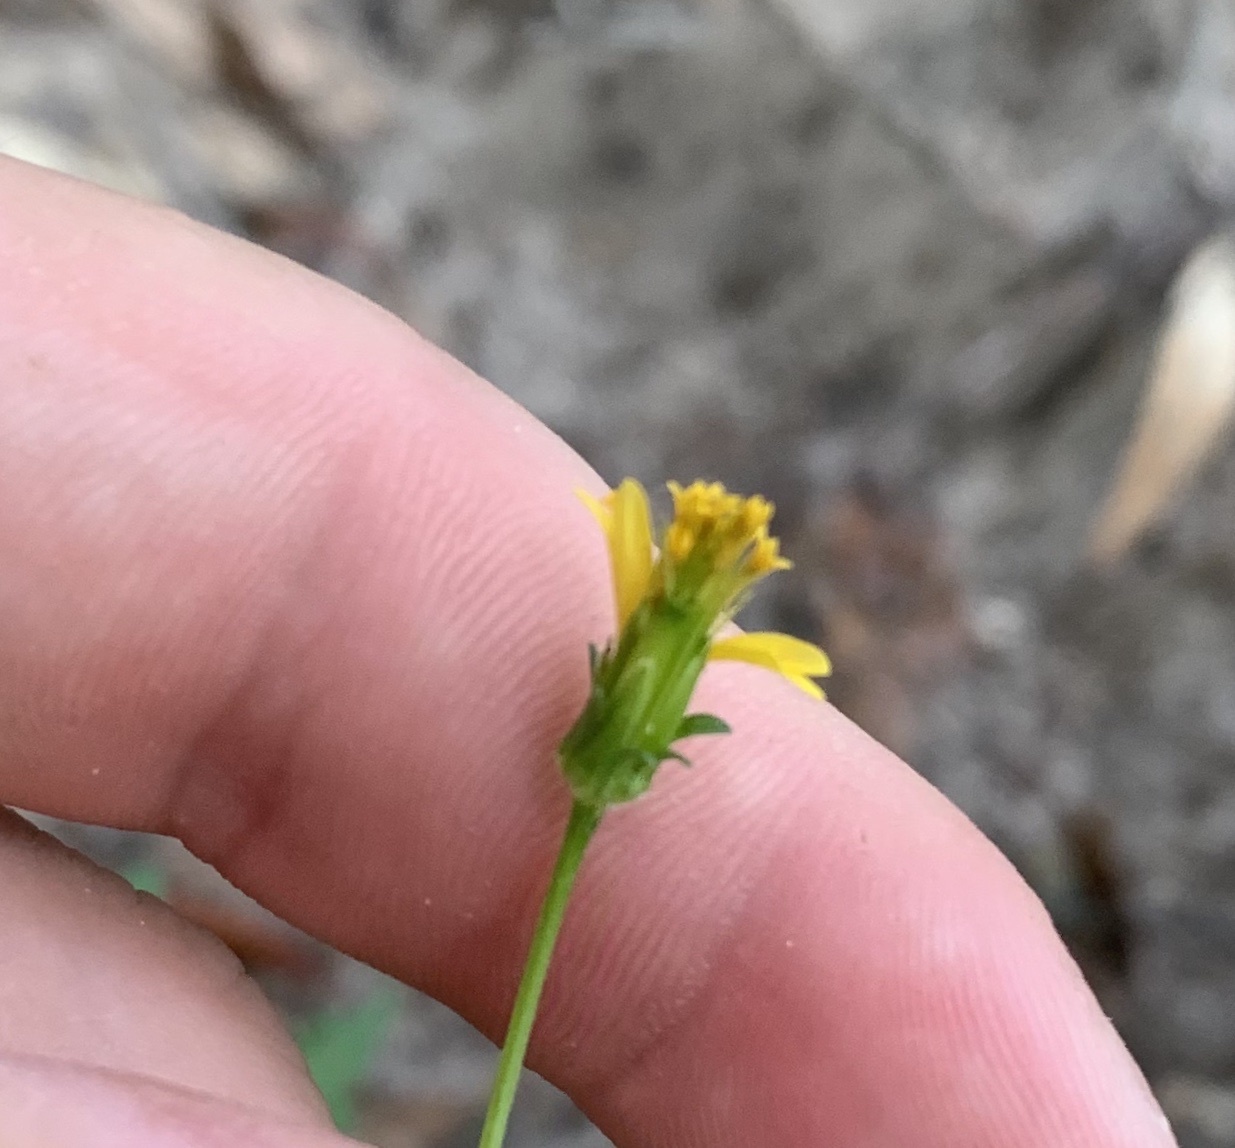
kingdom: Plantae
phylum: Tracheophyta
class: Magnoliopsida
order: Asterales
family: Asteraceae
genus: Bidens
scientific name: Bidens bipinnata
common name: Spanish-needles
